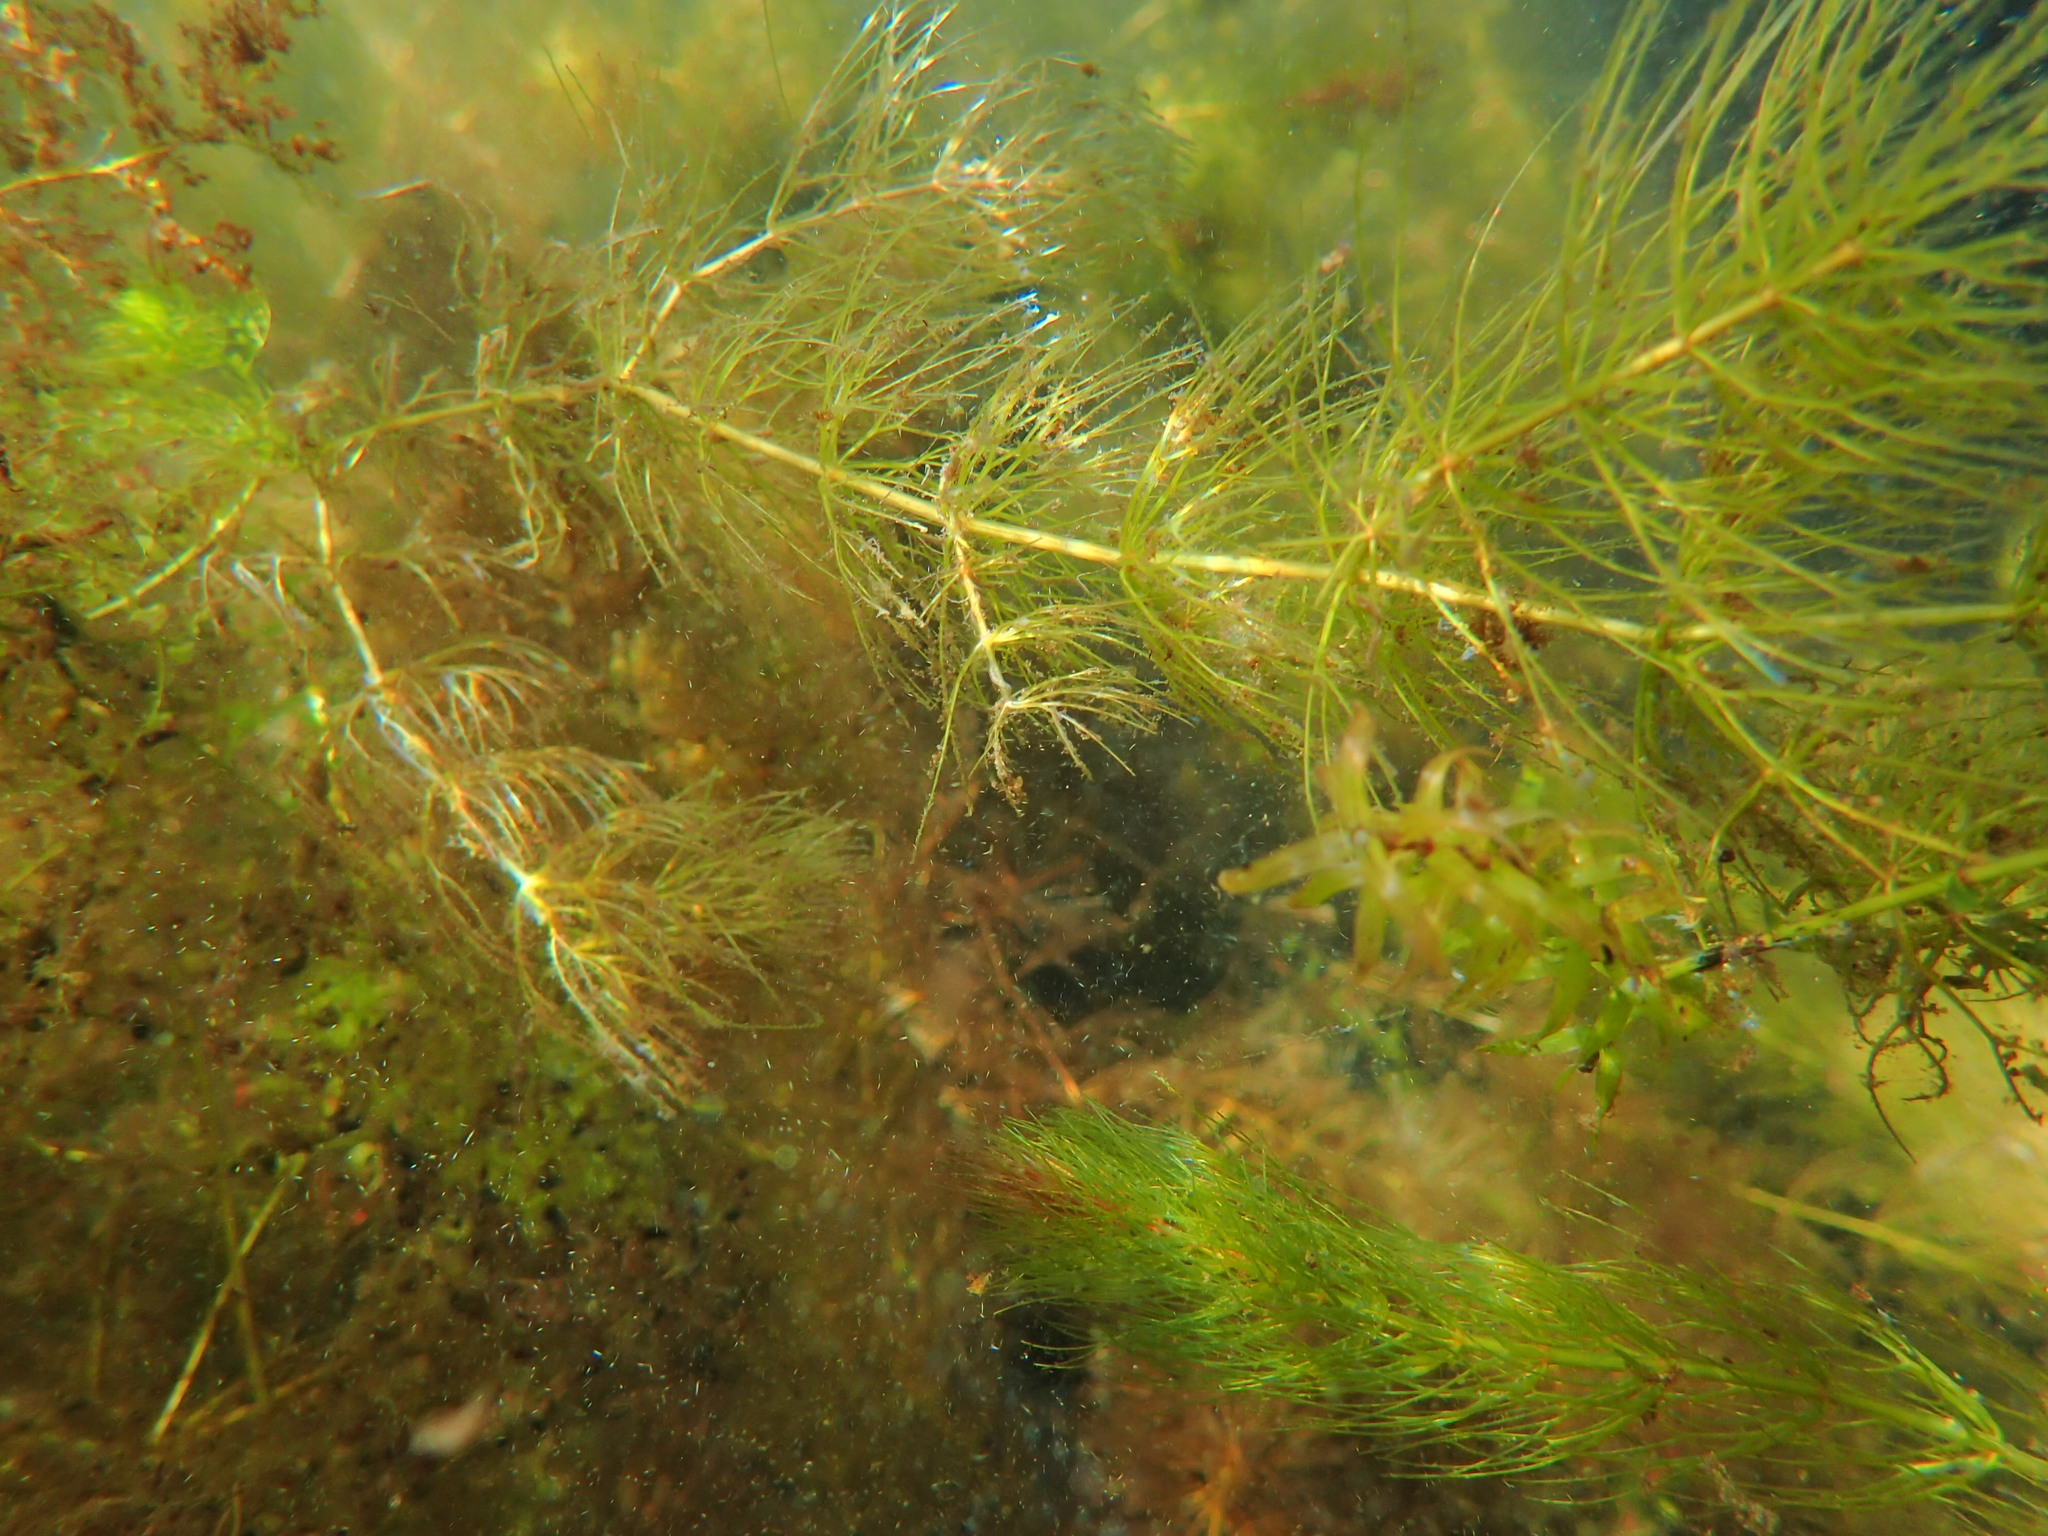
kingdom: Plantae
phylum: Tracheophyta
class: Magnoliopsida
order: Ceratophyllales
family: Ceratophyllaceae
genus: Ceratophyllum
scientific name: Ceratophyllum echinatum
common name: Prickly coontail
